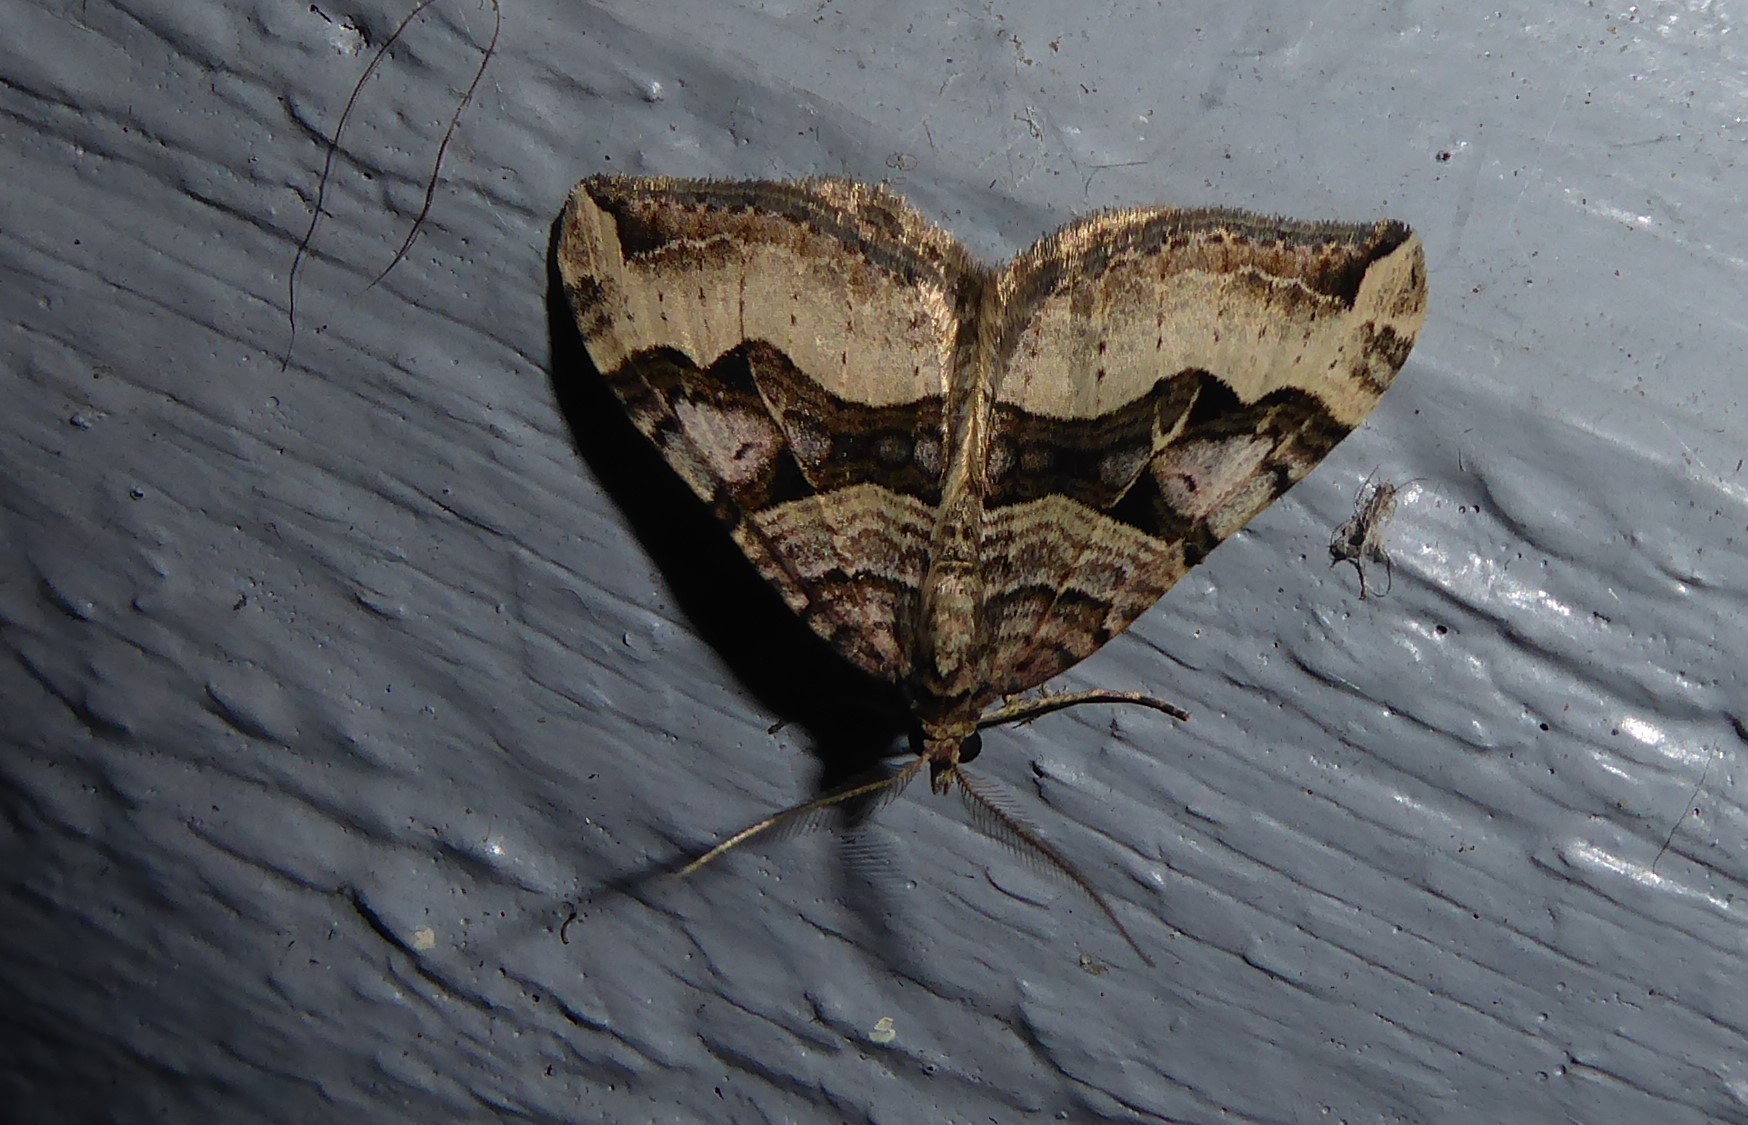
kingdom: Animalia
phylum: Arthropoda
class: Insecta
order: Lepidoptera
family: Geometridae
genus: Xanthorhoe
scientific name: Xanthorhoe semifissata
